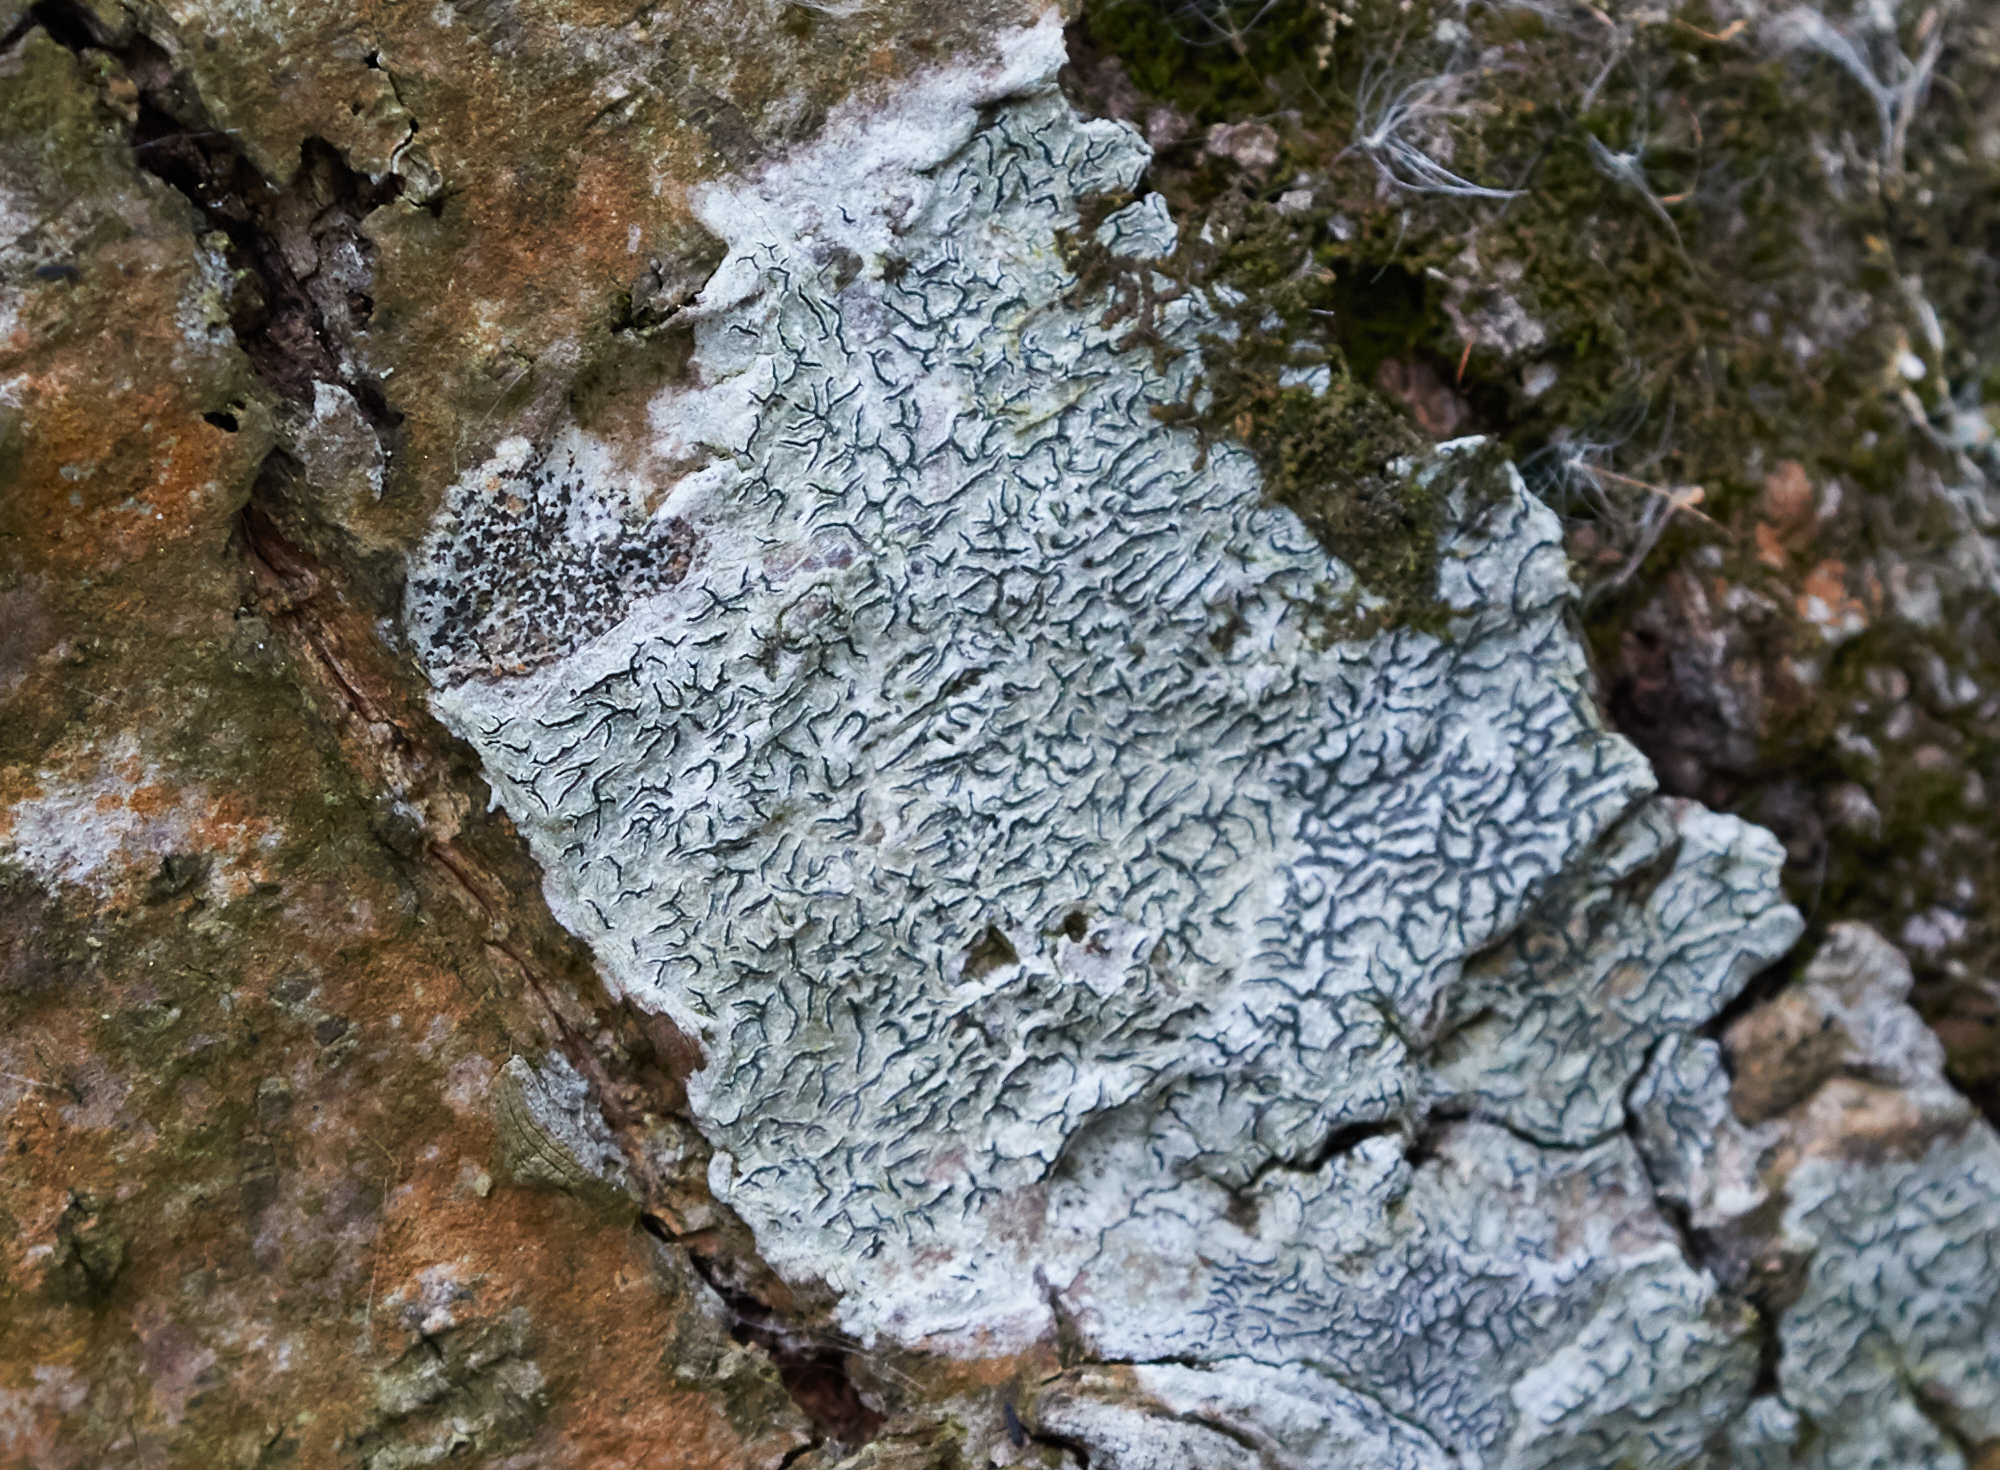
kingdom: Fungi
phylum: Ascomycota
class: Lecanoromycetes
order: Ostropales
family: Graphidaceae
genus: Graphis
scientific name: Graphis scripta
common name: Script lichen
